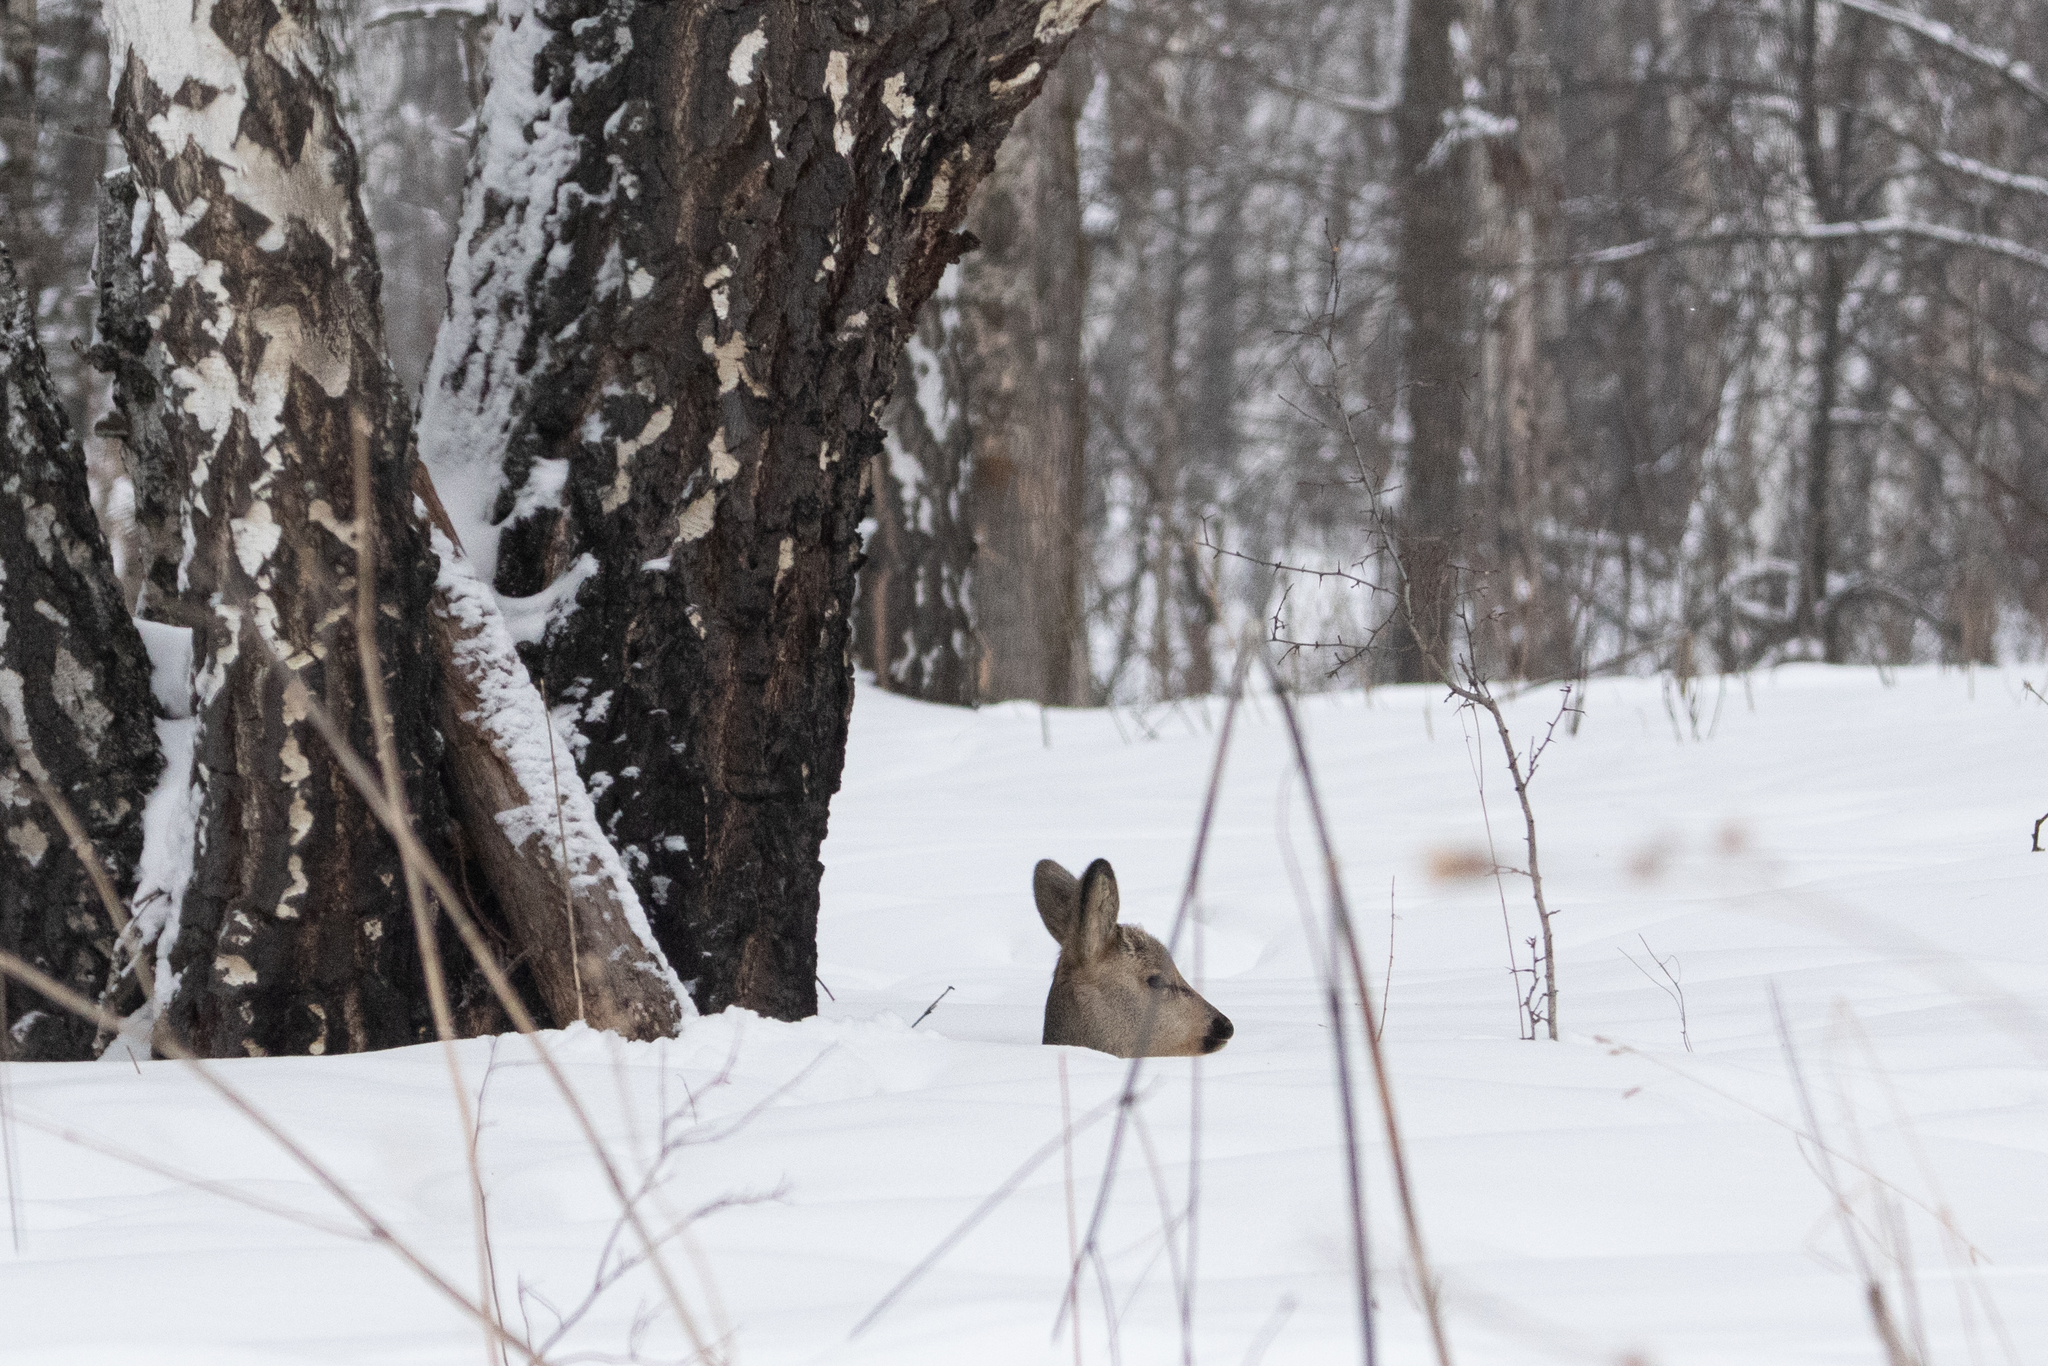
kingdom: Animalia
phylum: Chordata
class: Mammalia
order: Artiodactyla
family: Cervidae
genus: Capreolus
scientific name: Capreolus pygargus
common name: Siberian roe
